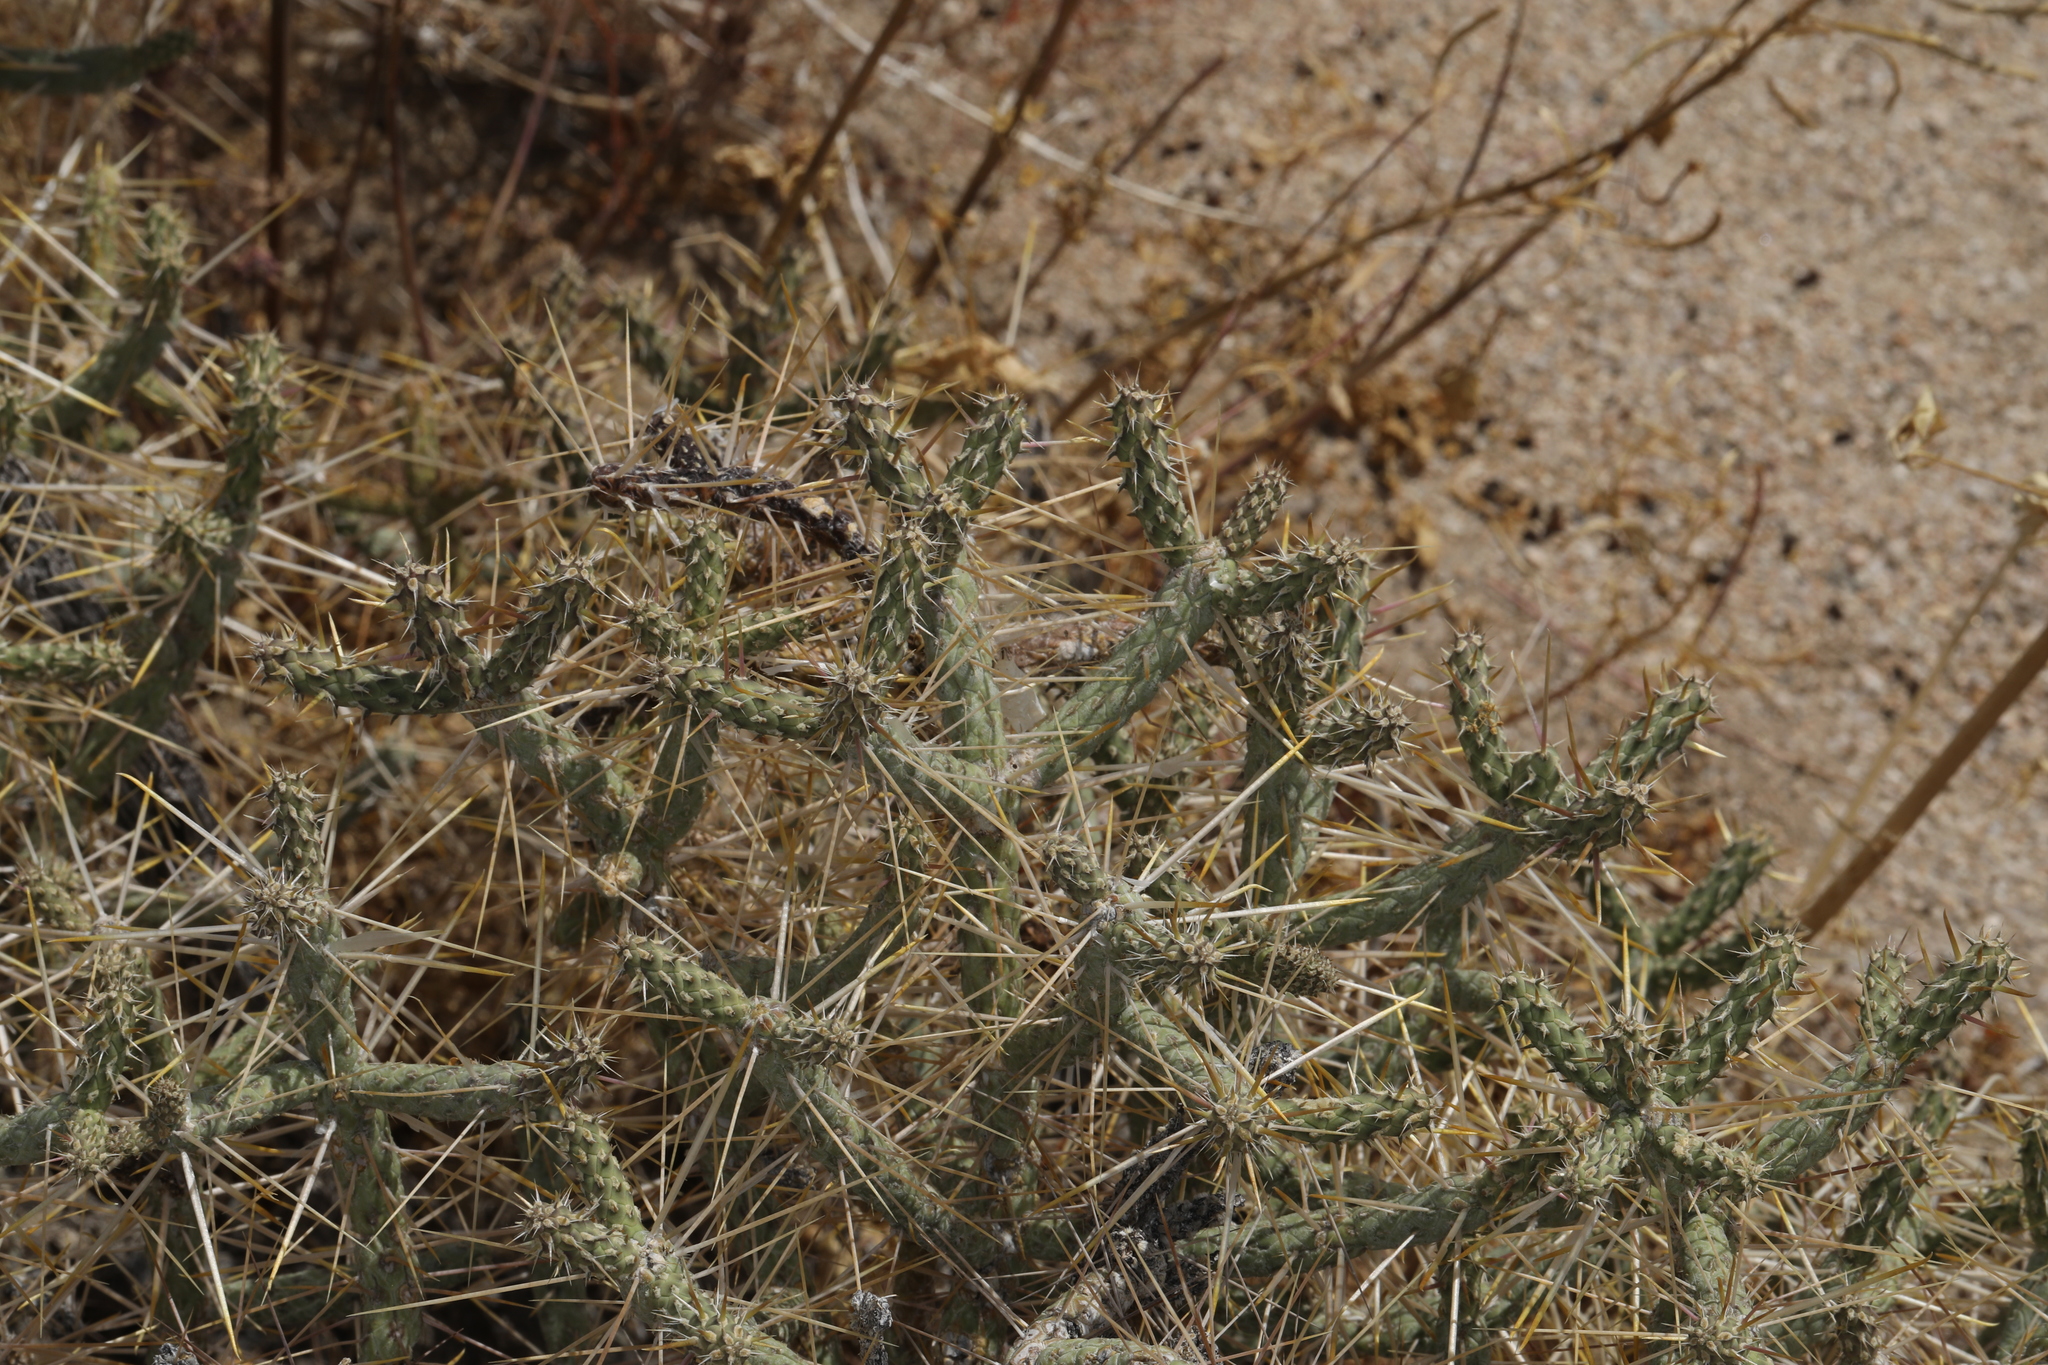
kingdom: Plantae
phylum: Tracheophyta
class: Magnoliopsida
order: Caryophyllales
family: Cactaceae
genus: Cylindropuntia
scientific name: Cylindropuntia ramosissima
